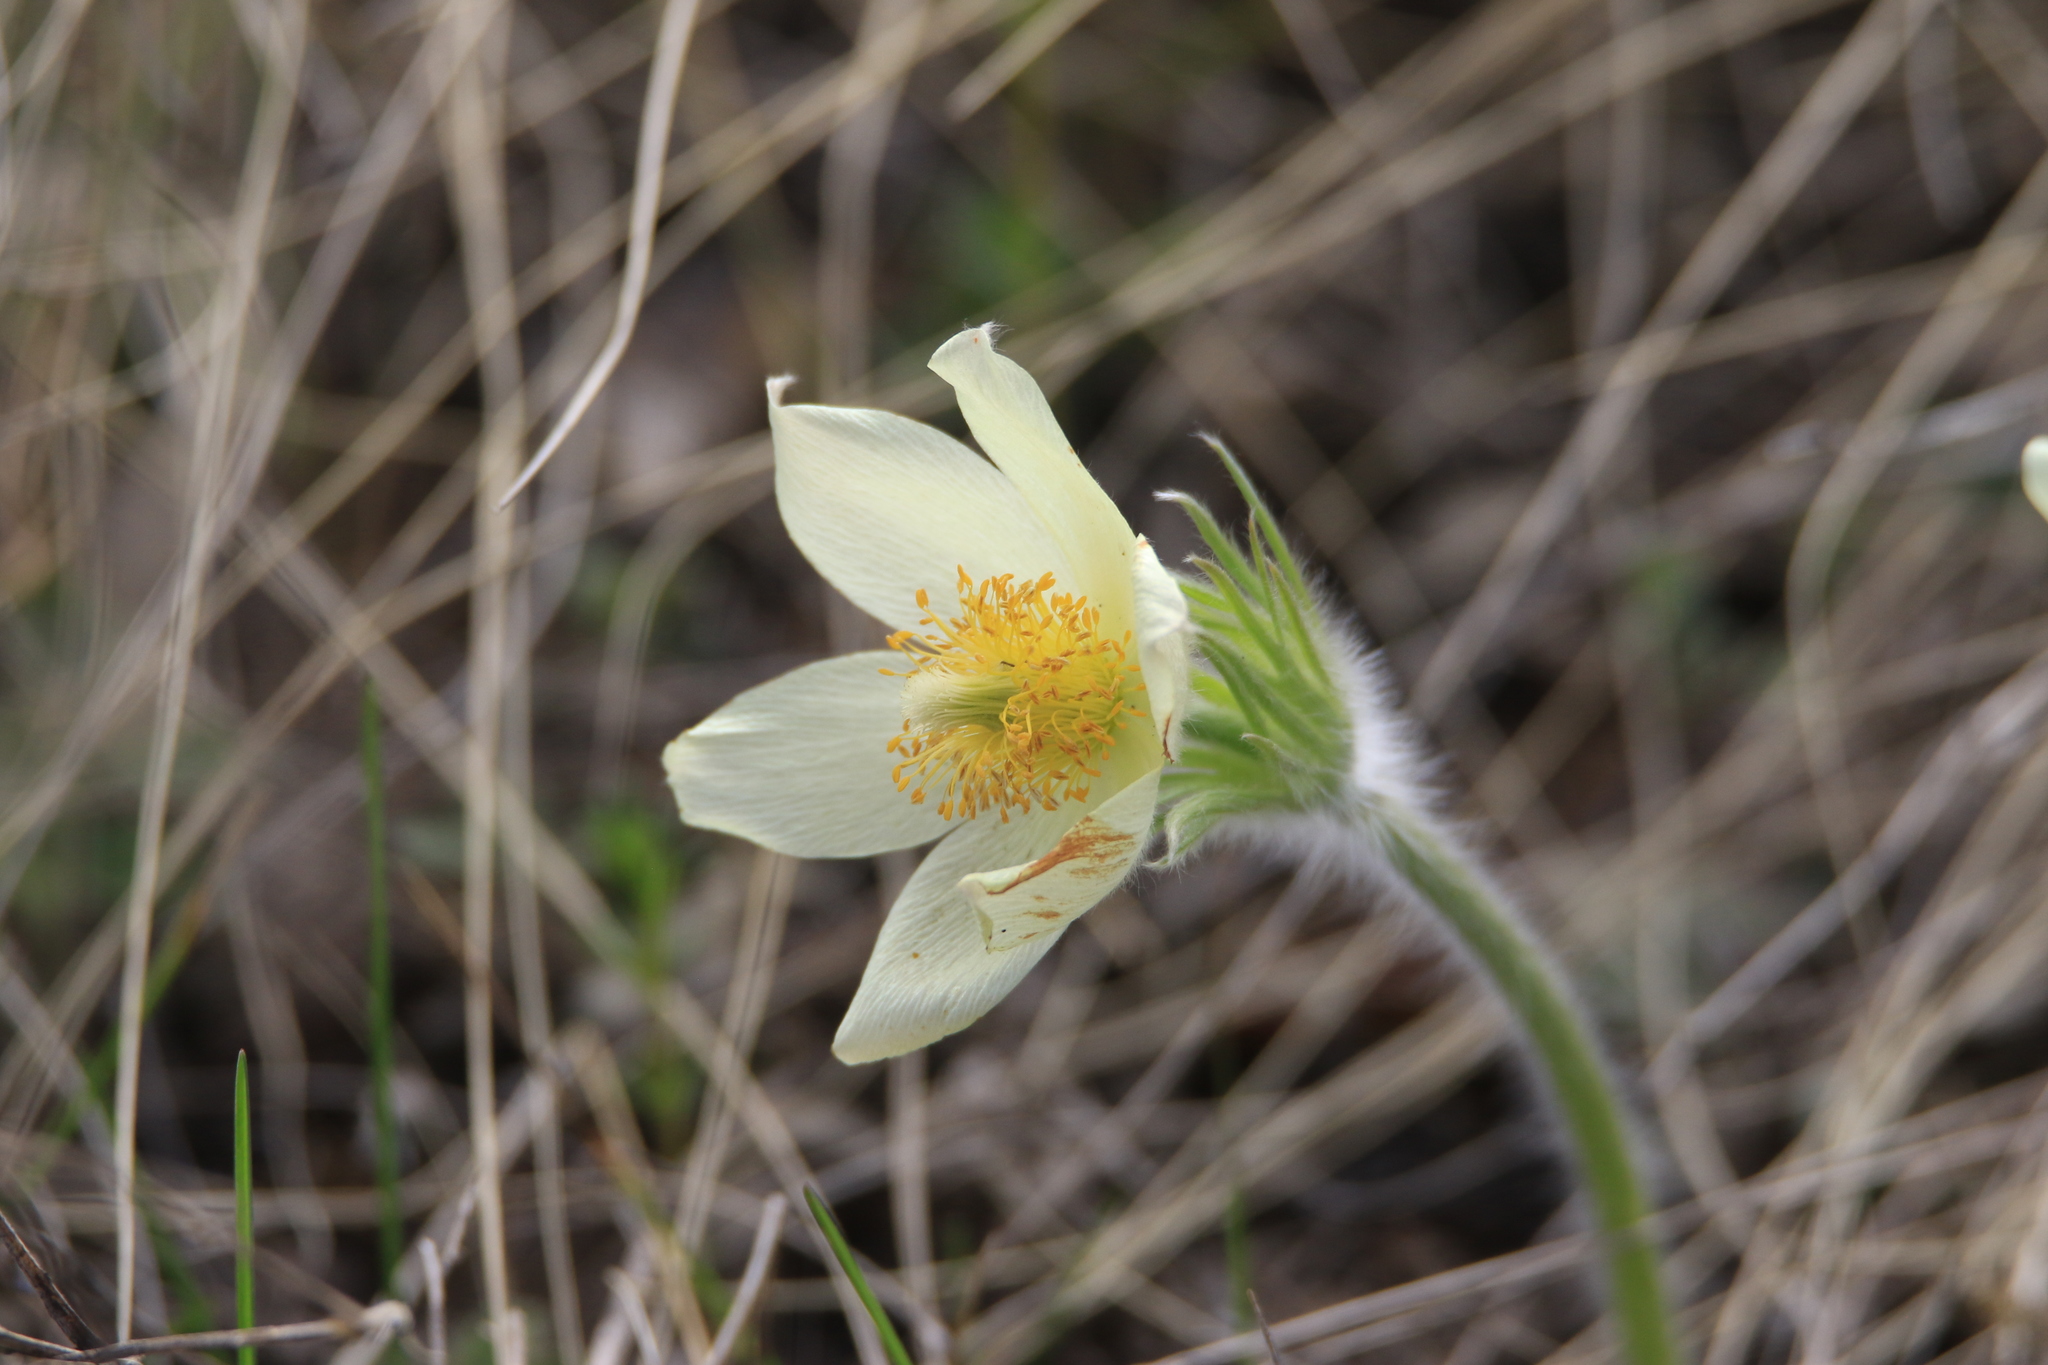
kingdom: Plantae
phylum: Tracheophyta
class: Magnoliopsida
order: Ranunculales
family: Ranunculaceae
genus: Pulsatilla
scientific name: Pulsatilla patens
